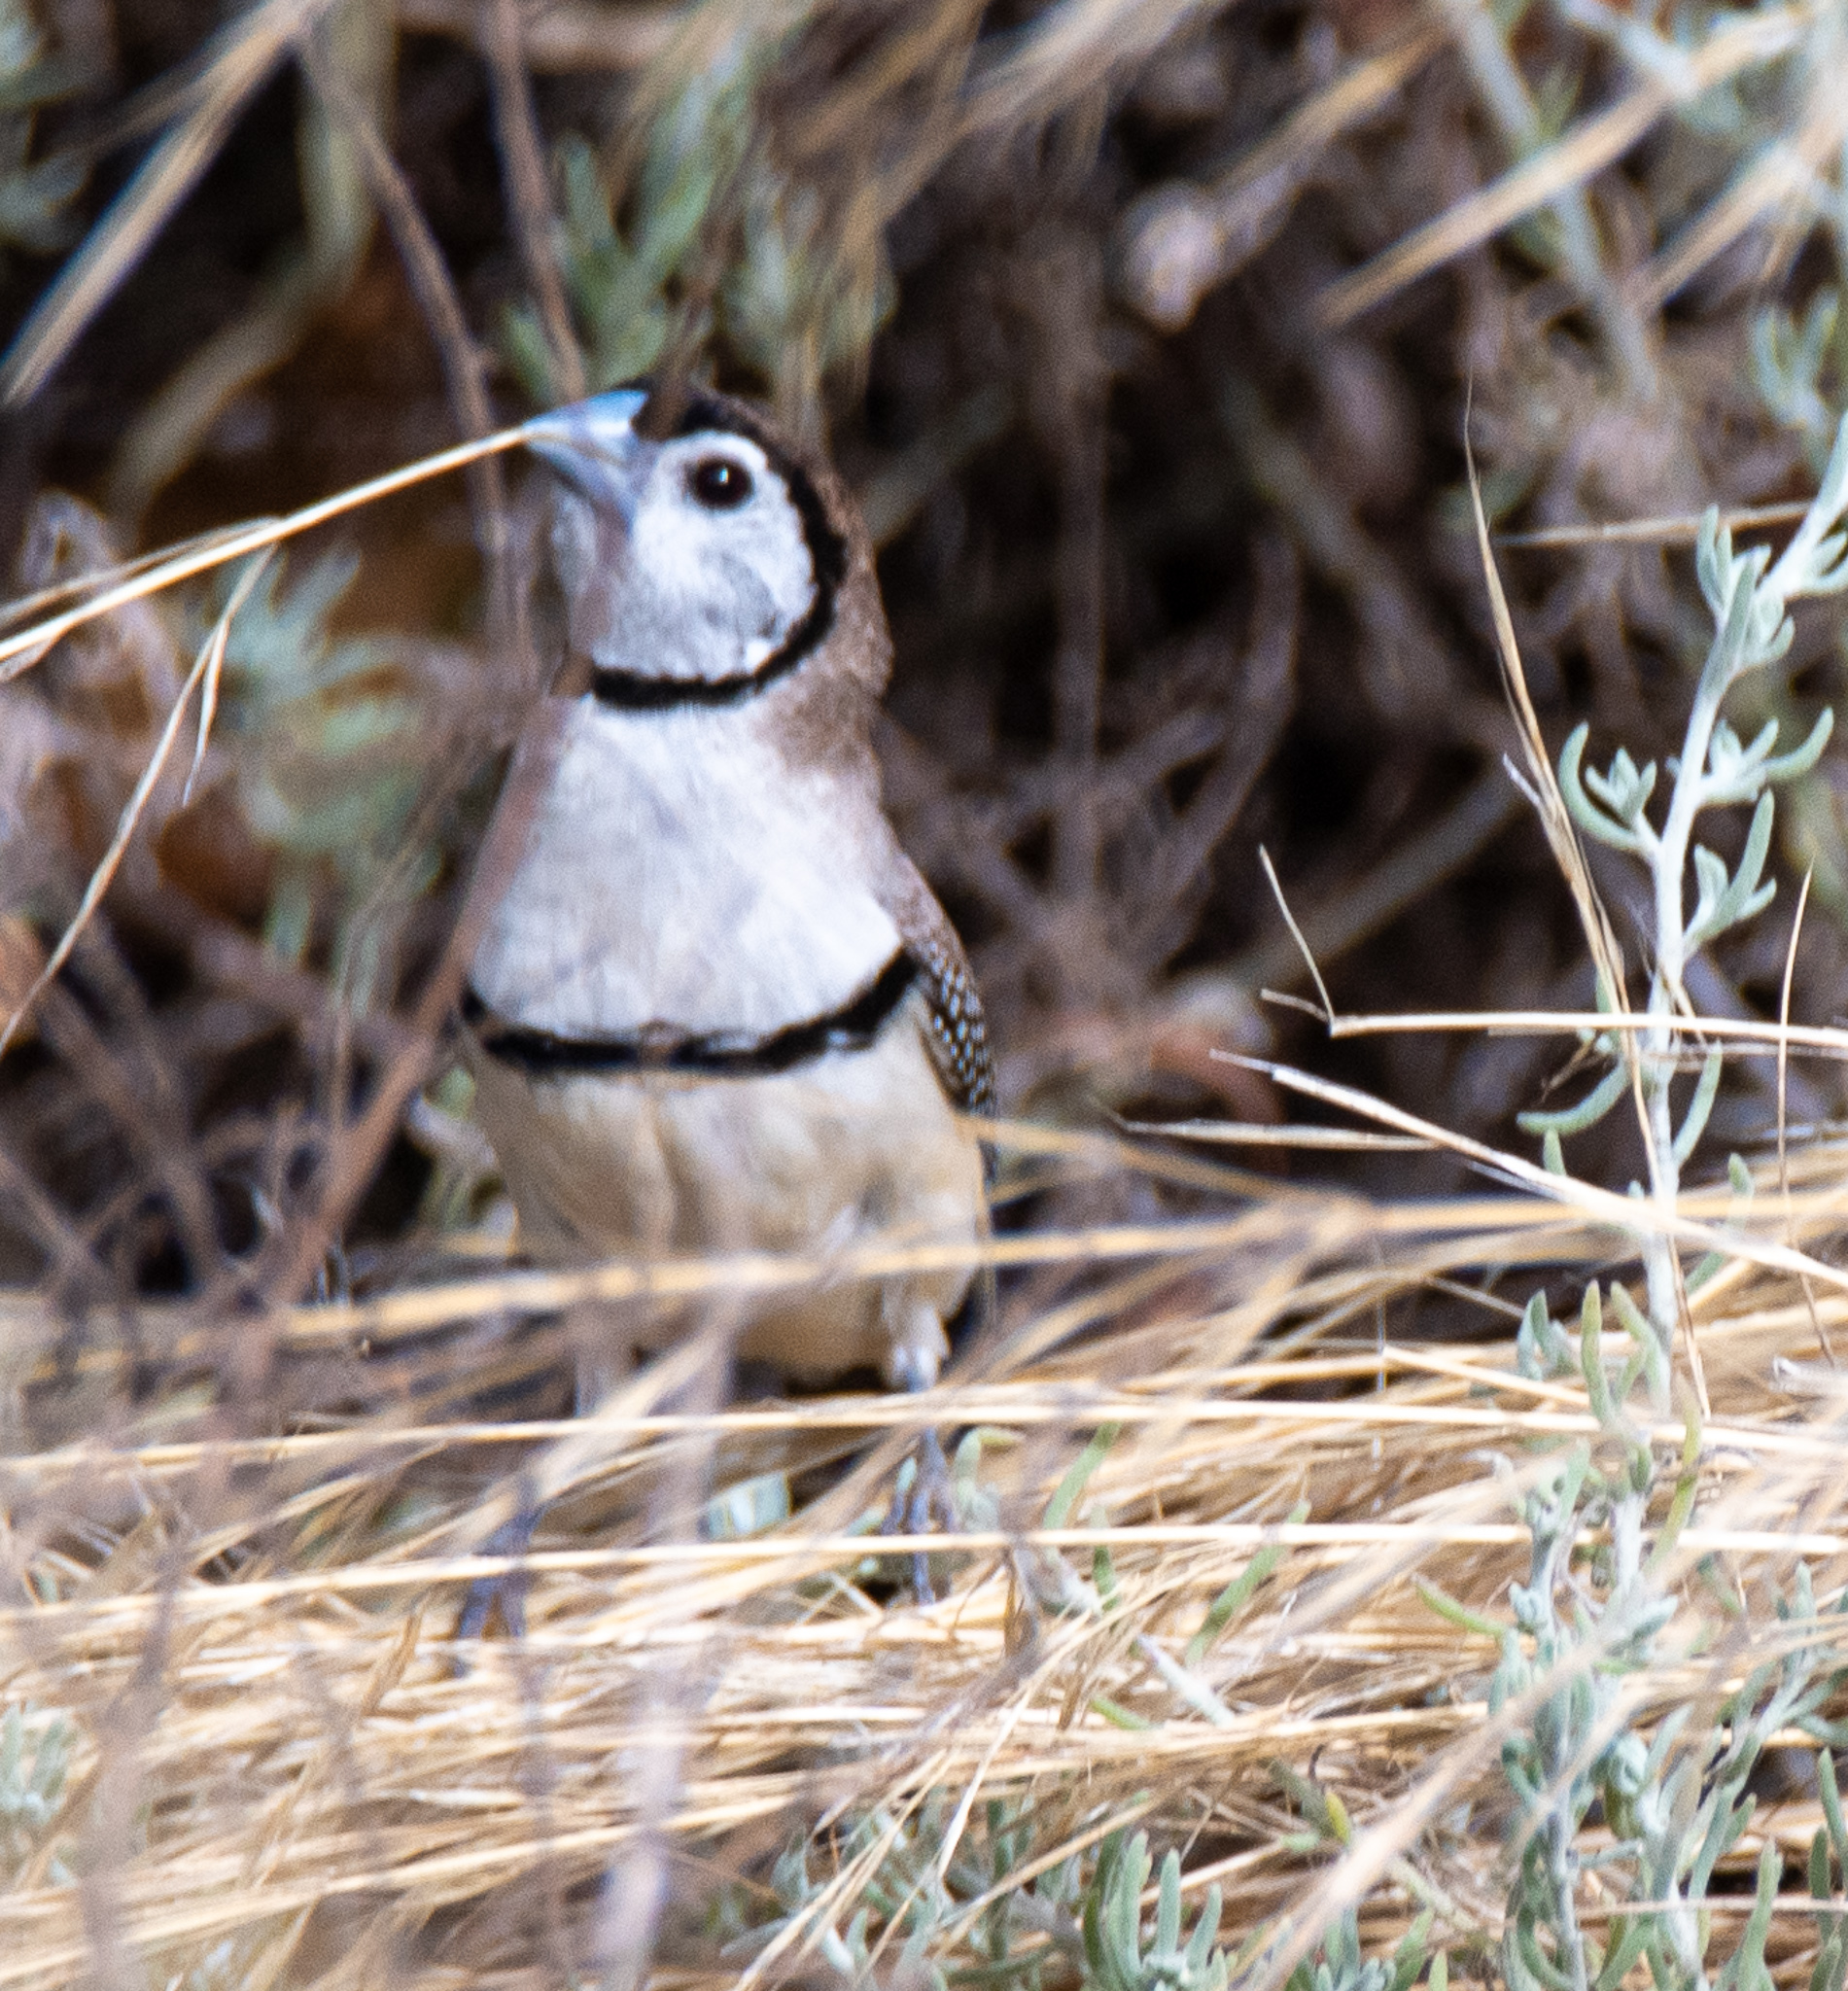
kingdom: Animalia
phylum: Chordata
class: Aves
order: Passeriformes
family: Estrildidae
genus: Taeniopygia
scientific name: Taeniopygia bichenovii
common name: Double-barred finch
